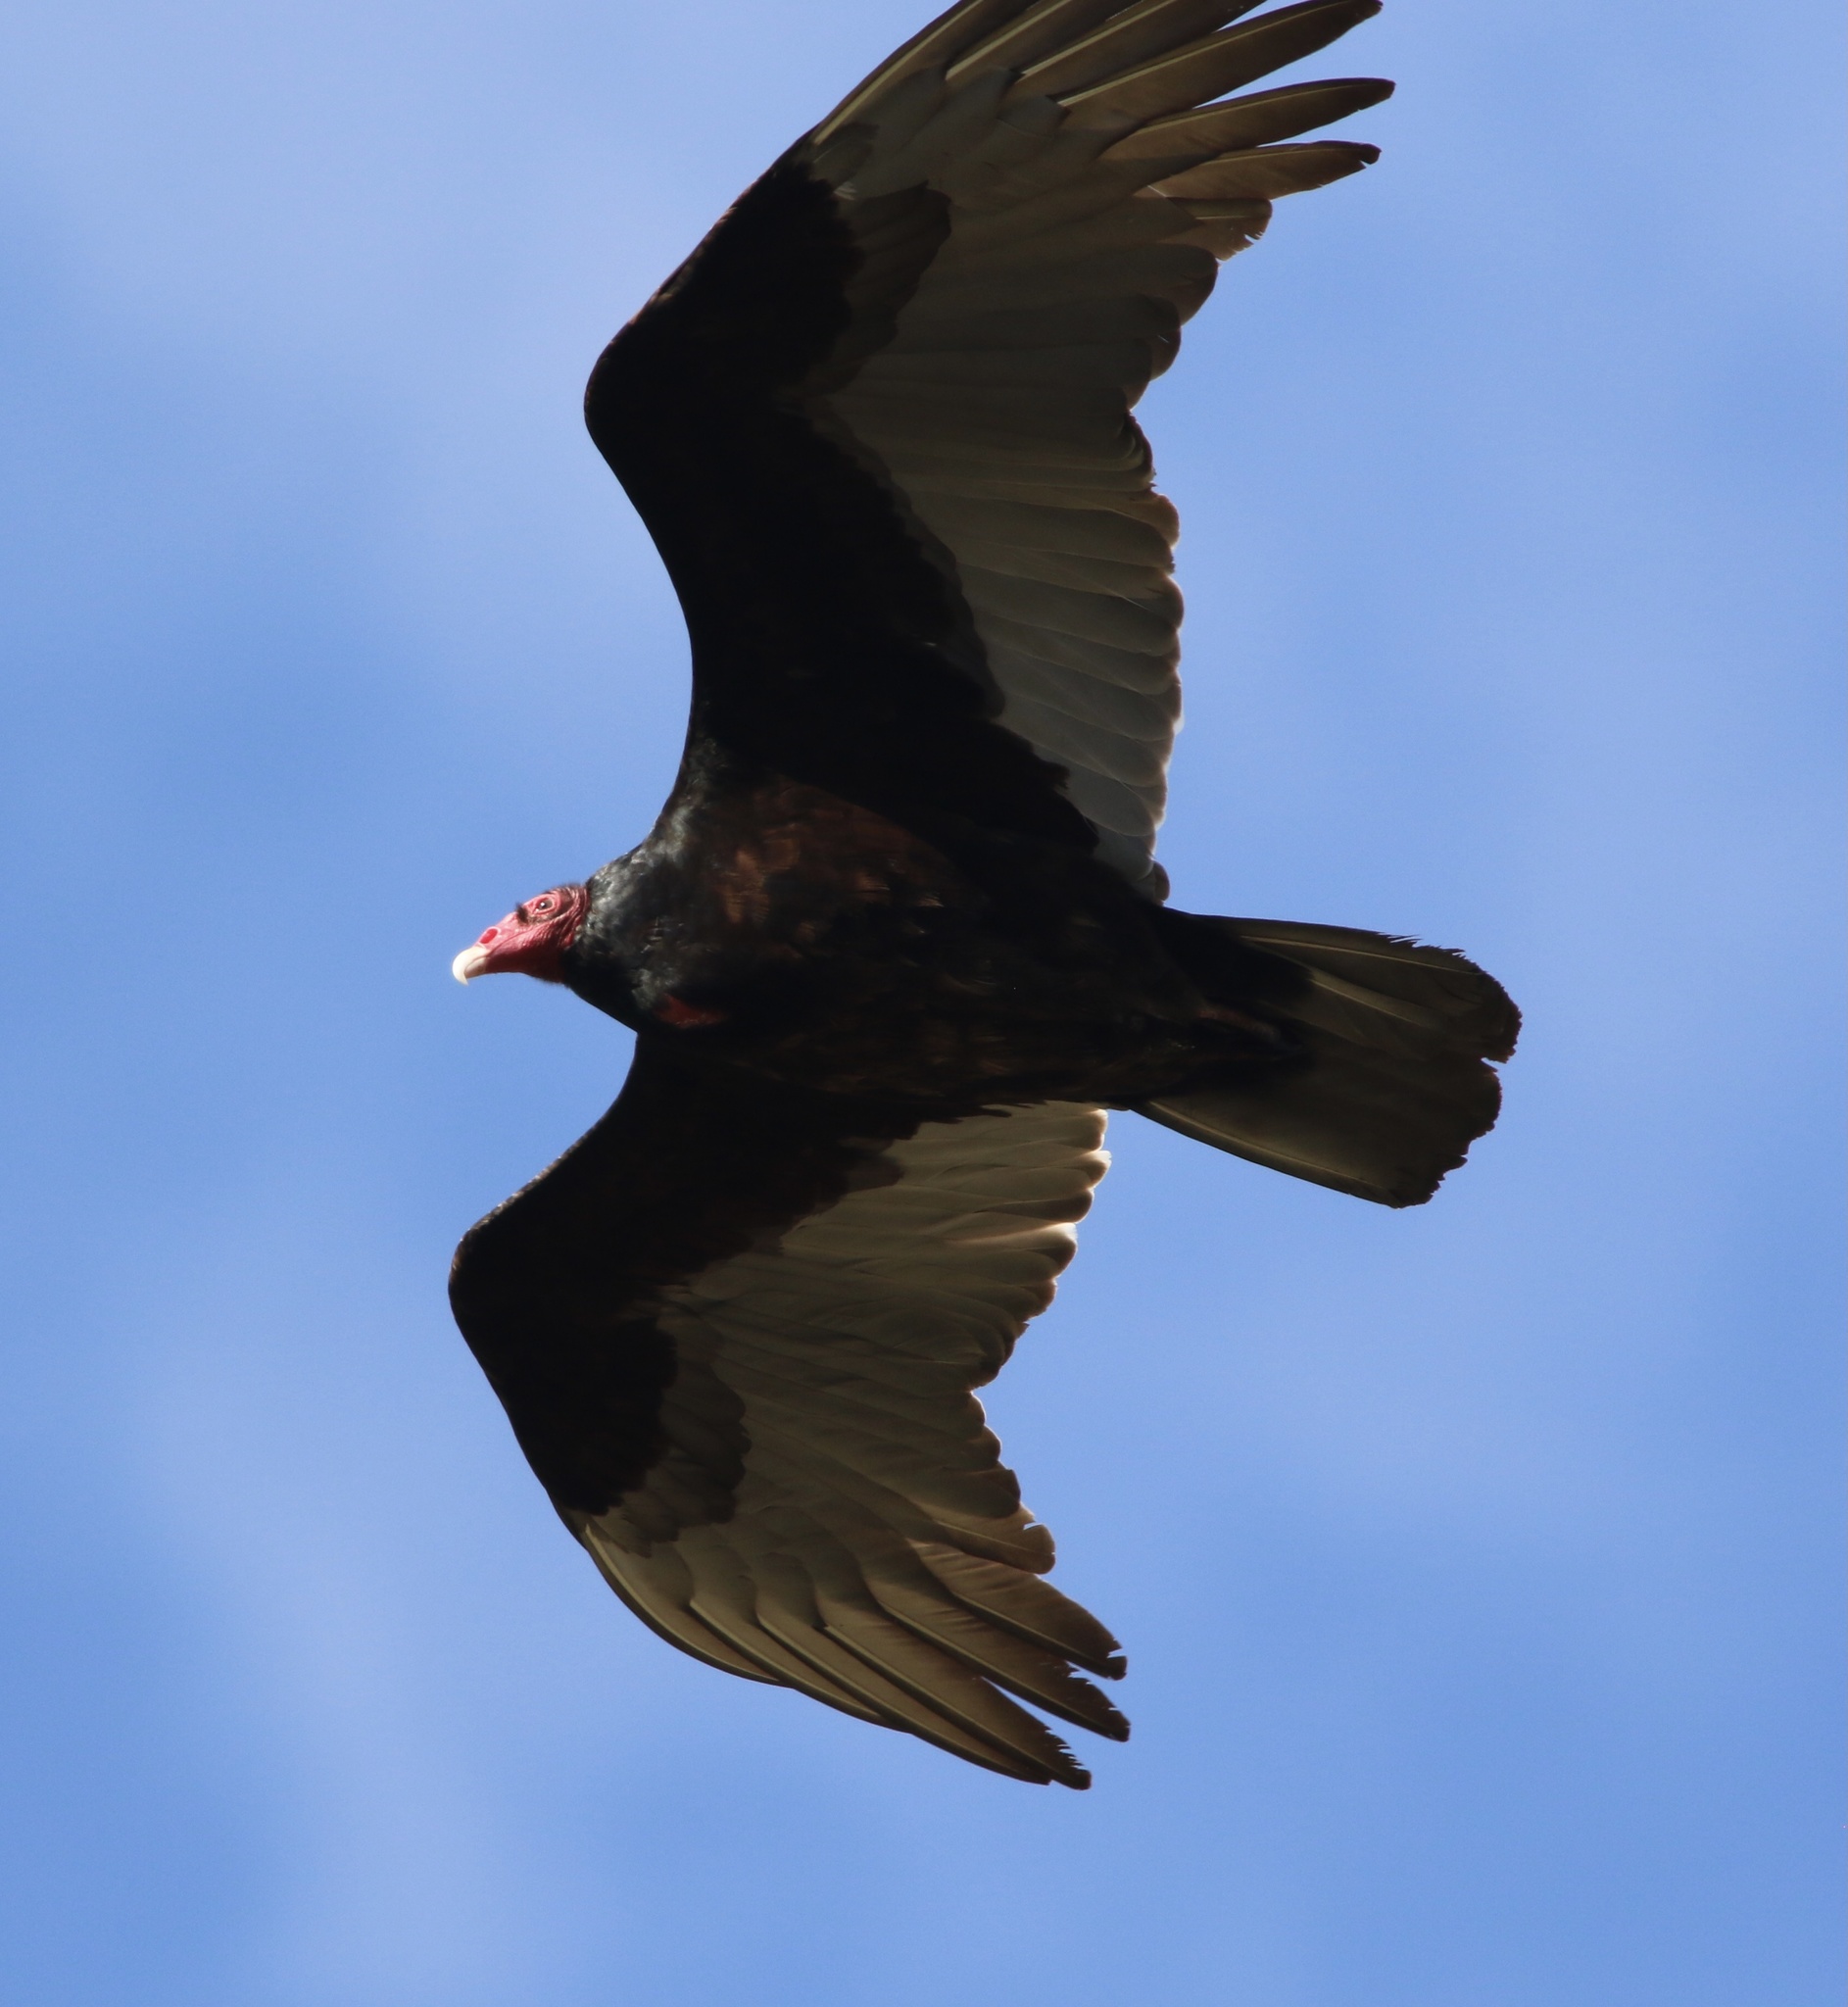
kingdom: Animalia
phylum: Chordata
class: Aves
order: Accipitriformes
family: Cathartidae
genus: Cathartes
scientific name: Cathartes aura
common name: Turkey vulture
